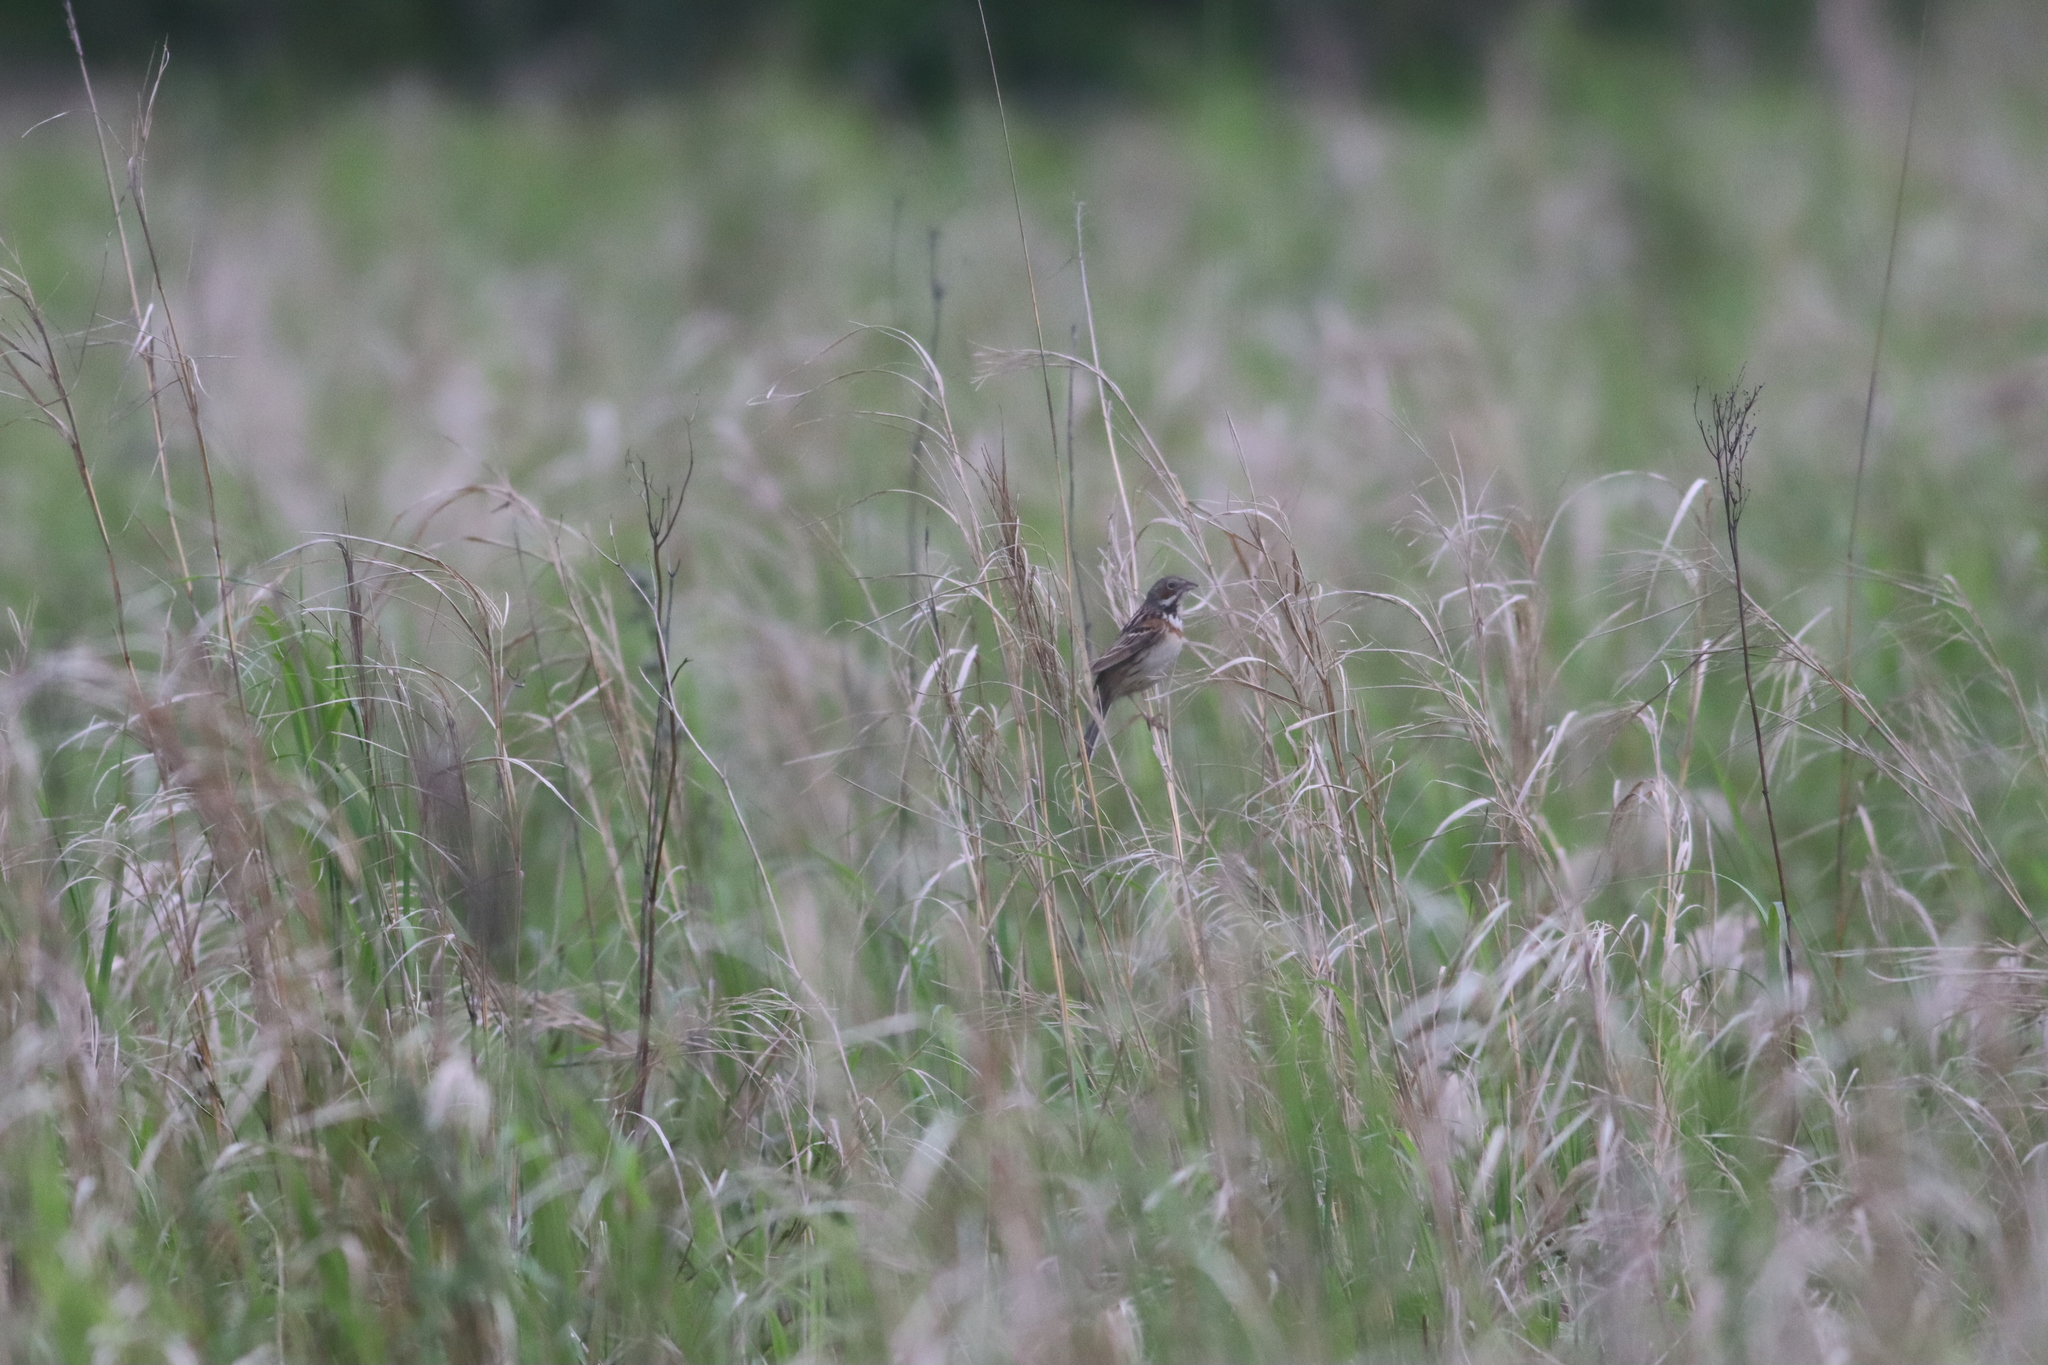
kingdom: Animalia
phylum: Chordata
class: Aves
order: Passeriformes
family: Emberizidae
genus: Emberiza
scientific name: Emberiza fucata
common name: Chestnut-eared bunting
